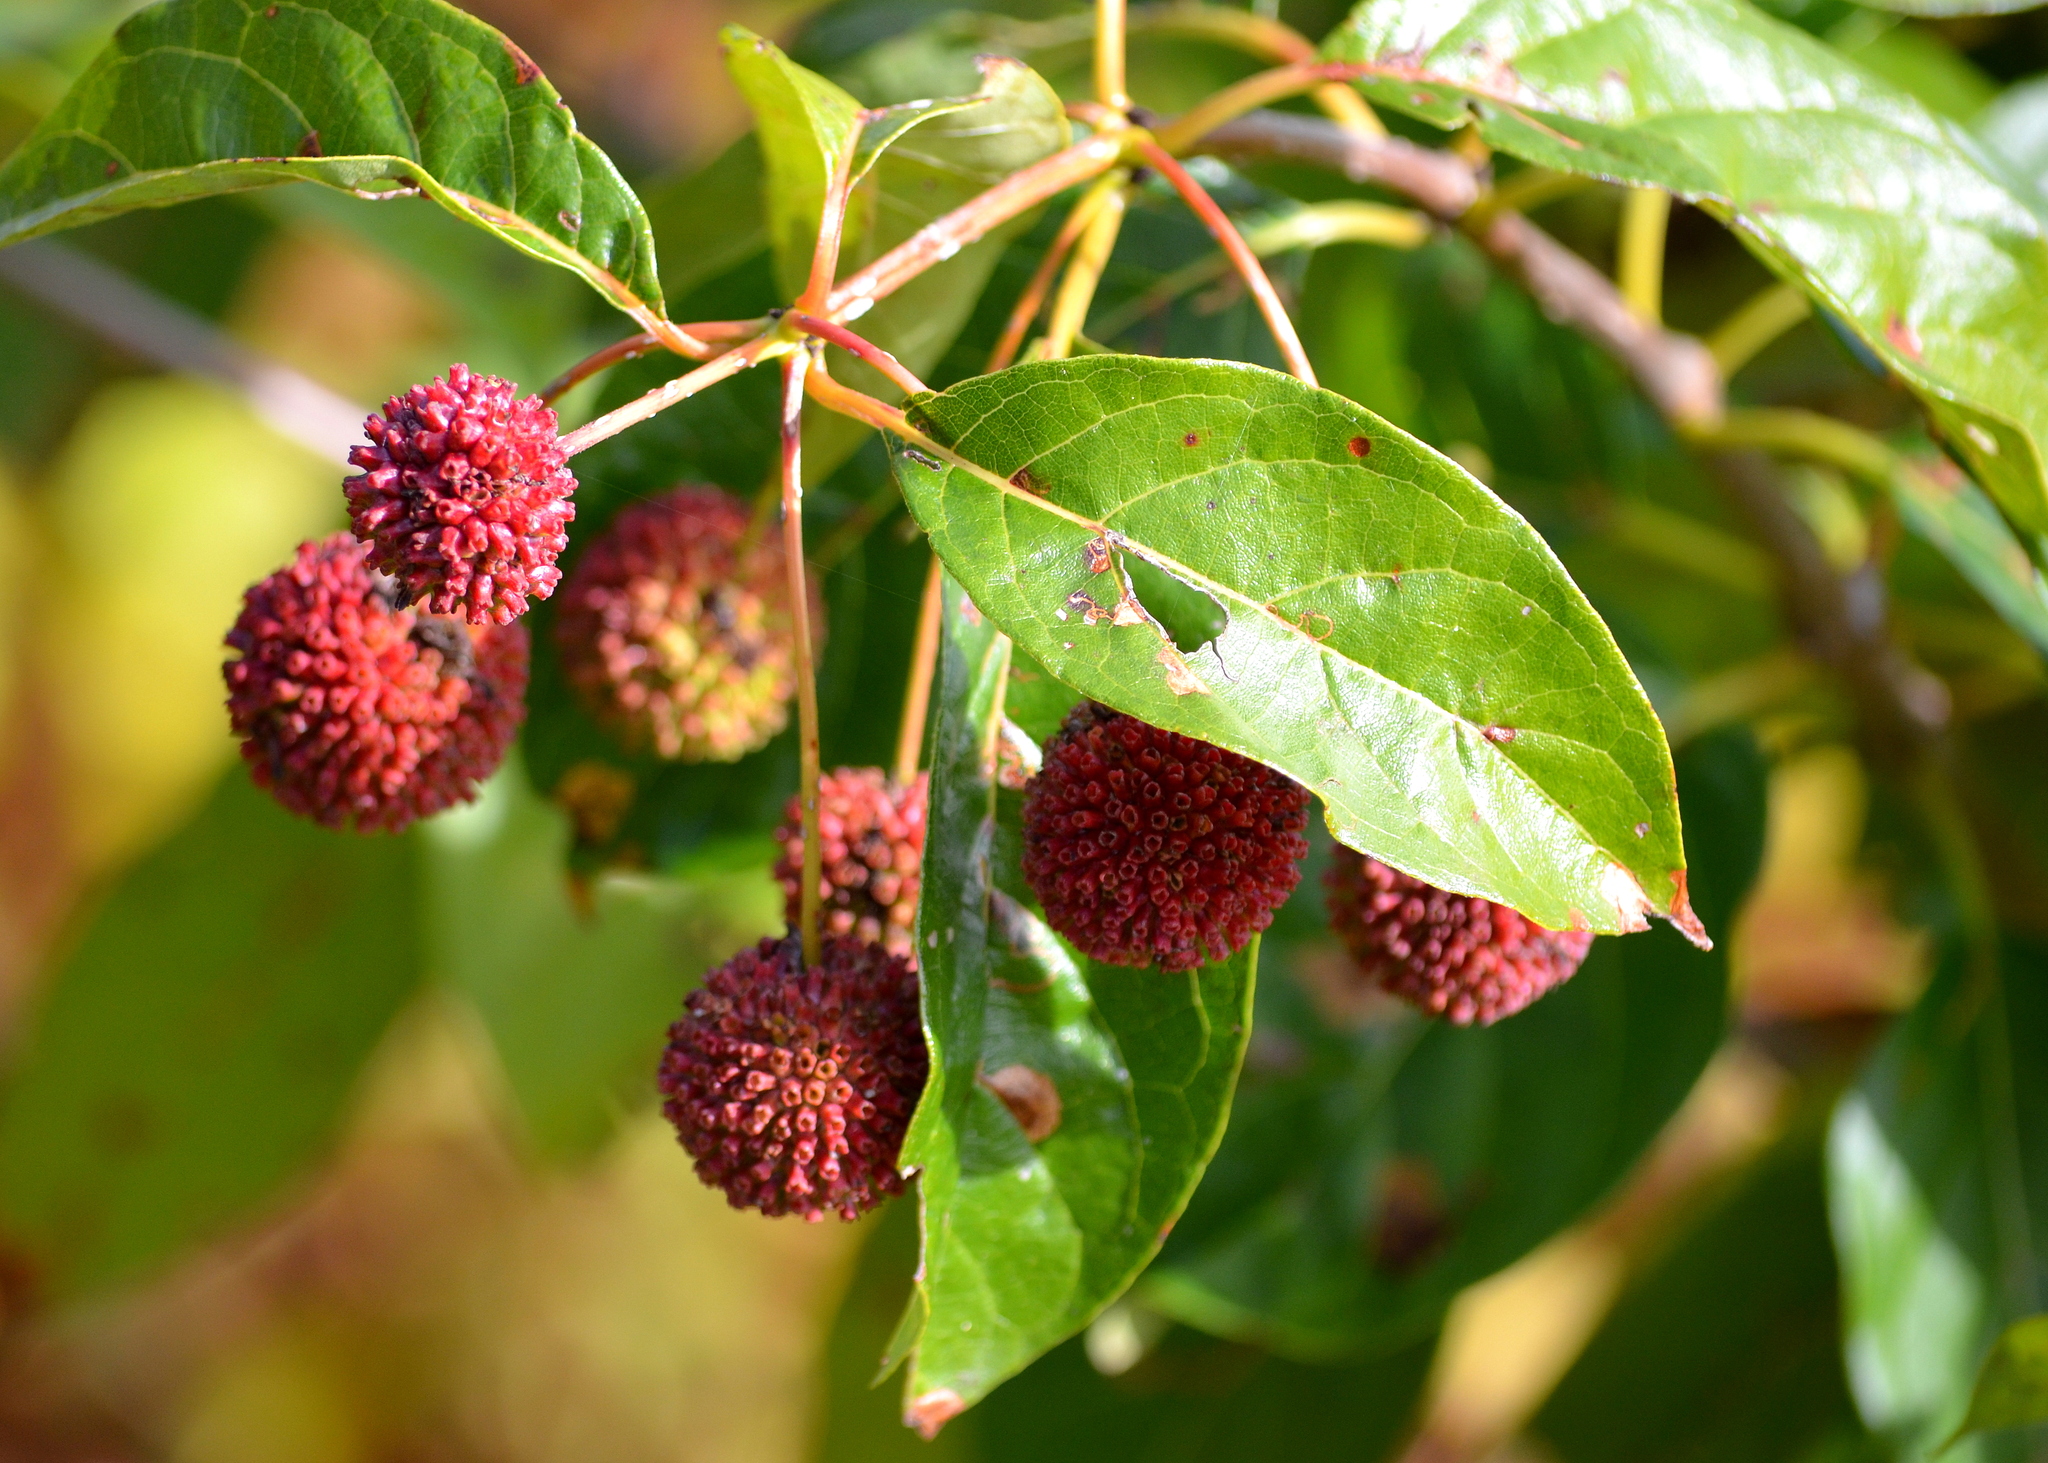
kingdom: Plantae
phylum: Tracheophyta
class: Magnoliopsida
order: Gentianales
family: Rubiaceae
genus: Cephalanthus
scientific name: Cephalanthus occidentalis
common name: Button-willow
